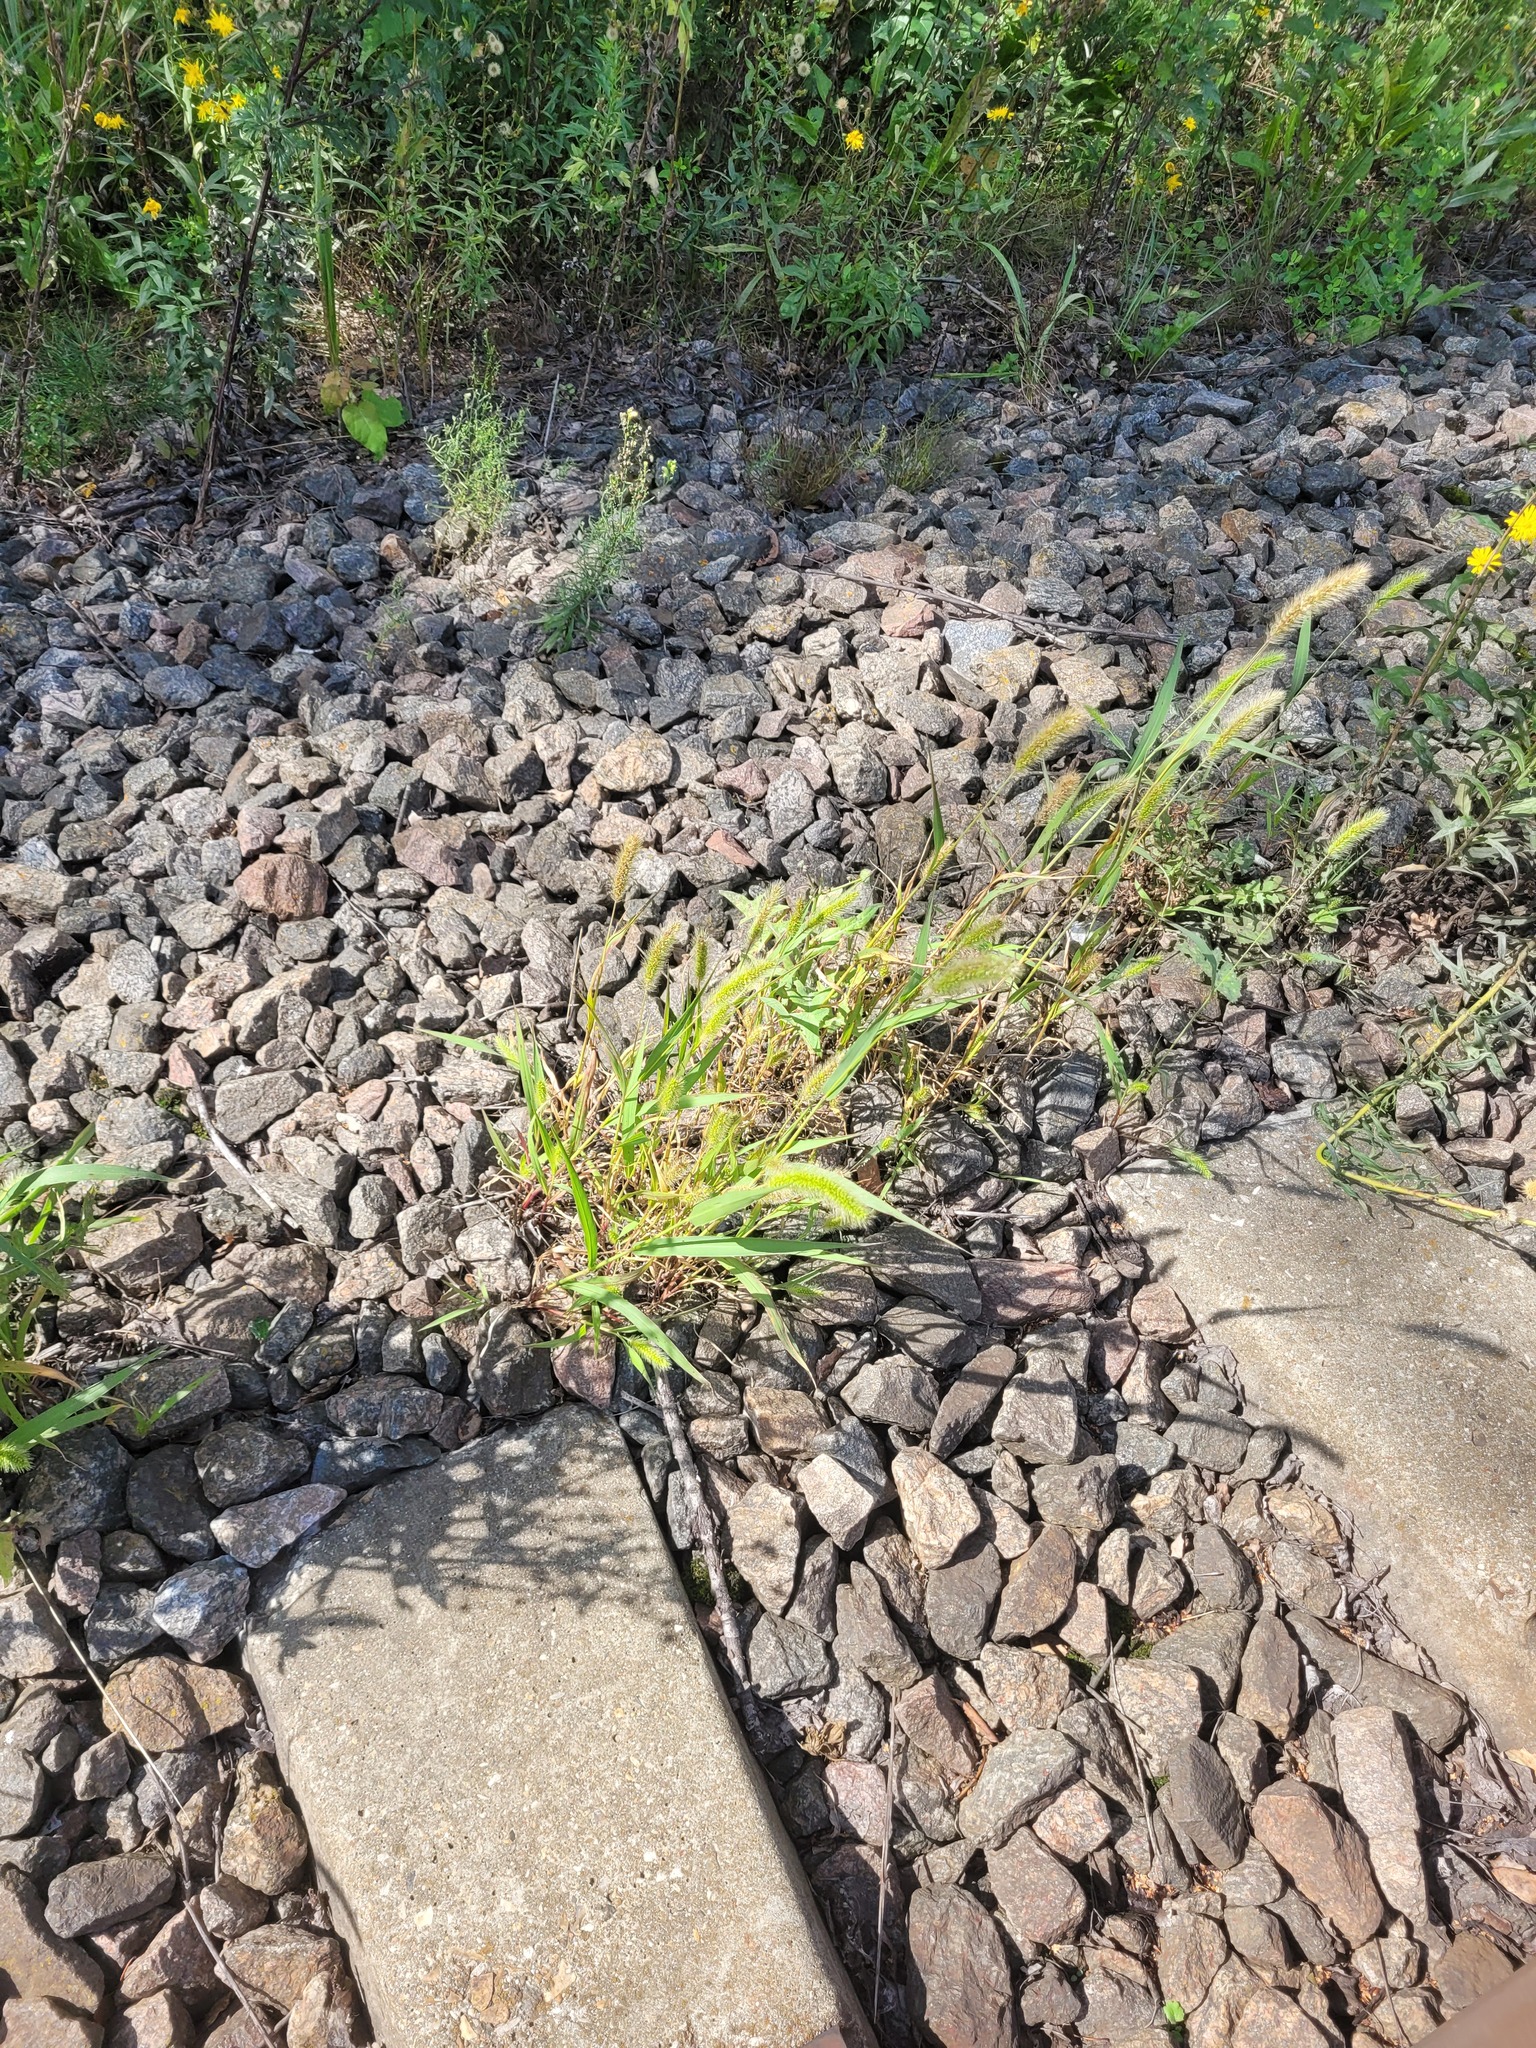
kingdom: Plantae
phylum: Tracheophyta
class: Liliopsida
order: Poales
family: Poaceae
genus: Setaria
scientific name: Setaria viridis
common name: Green bristlegrass
